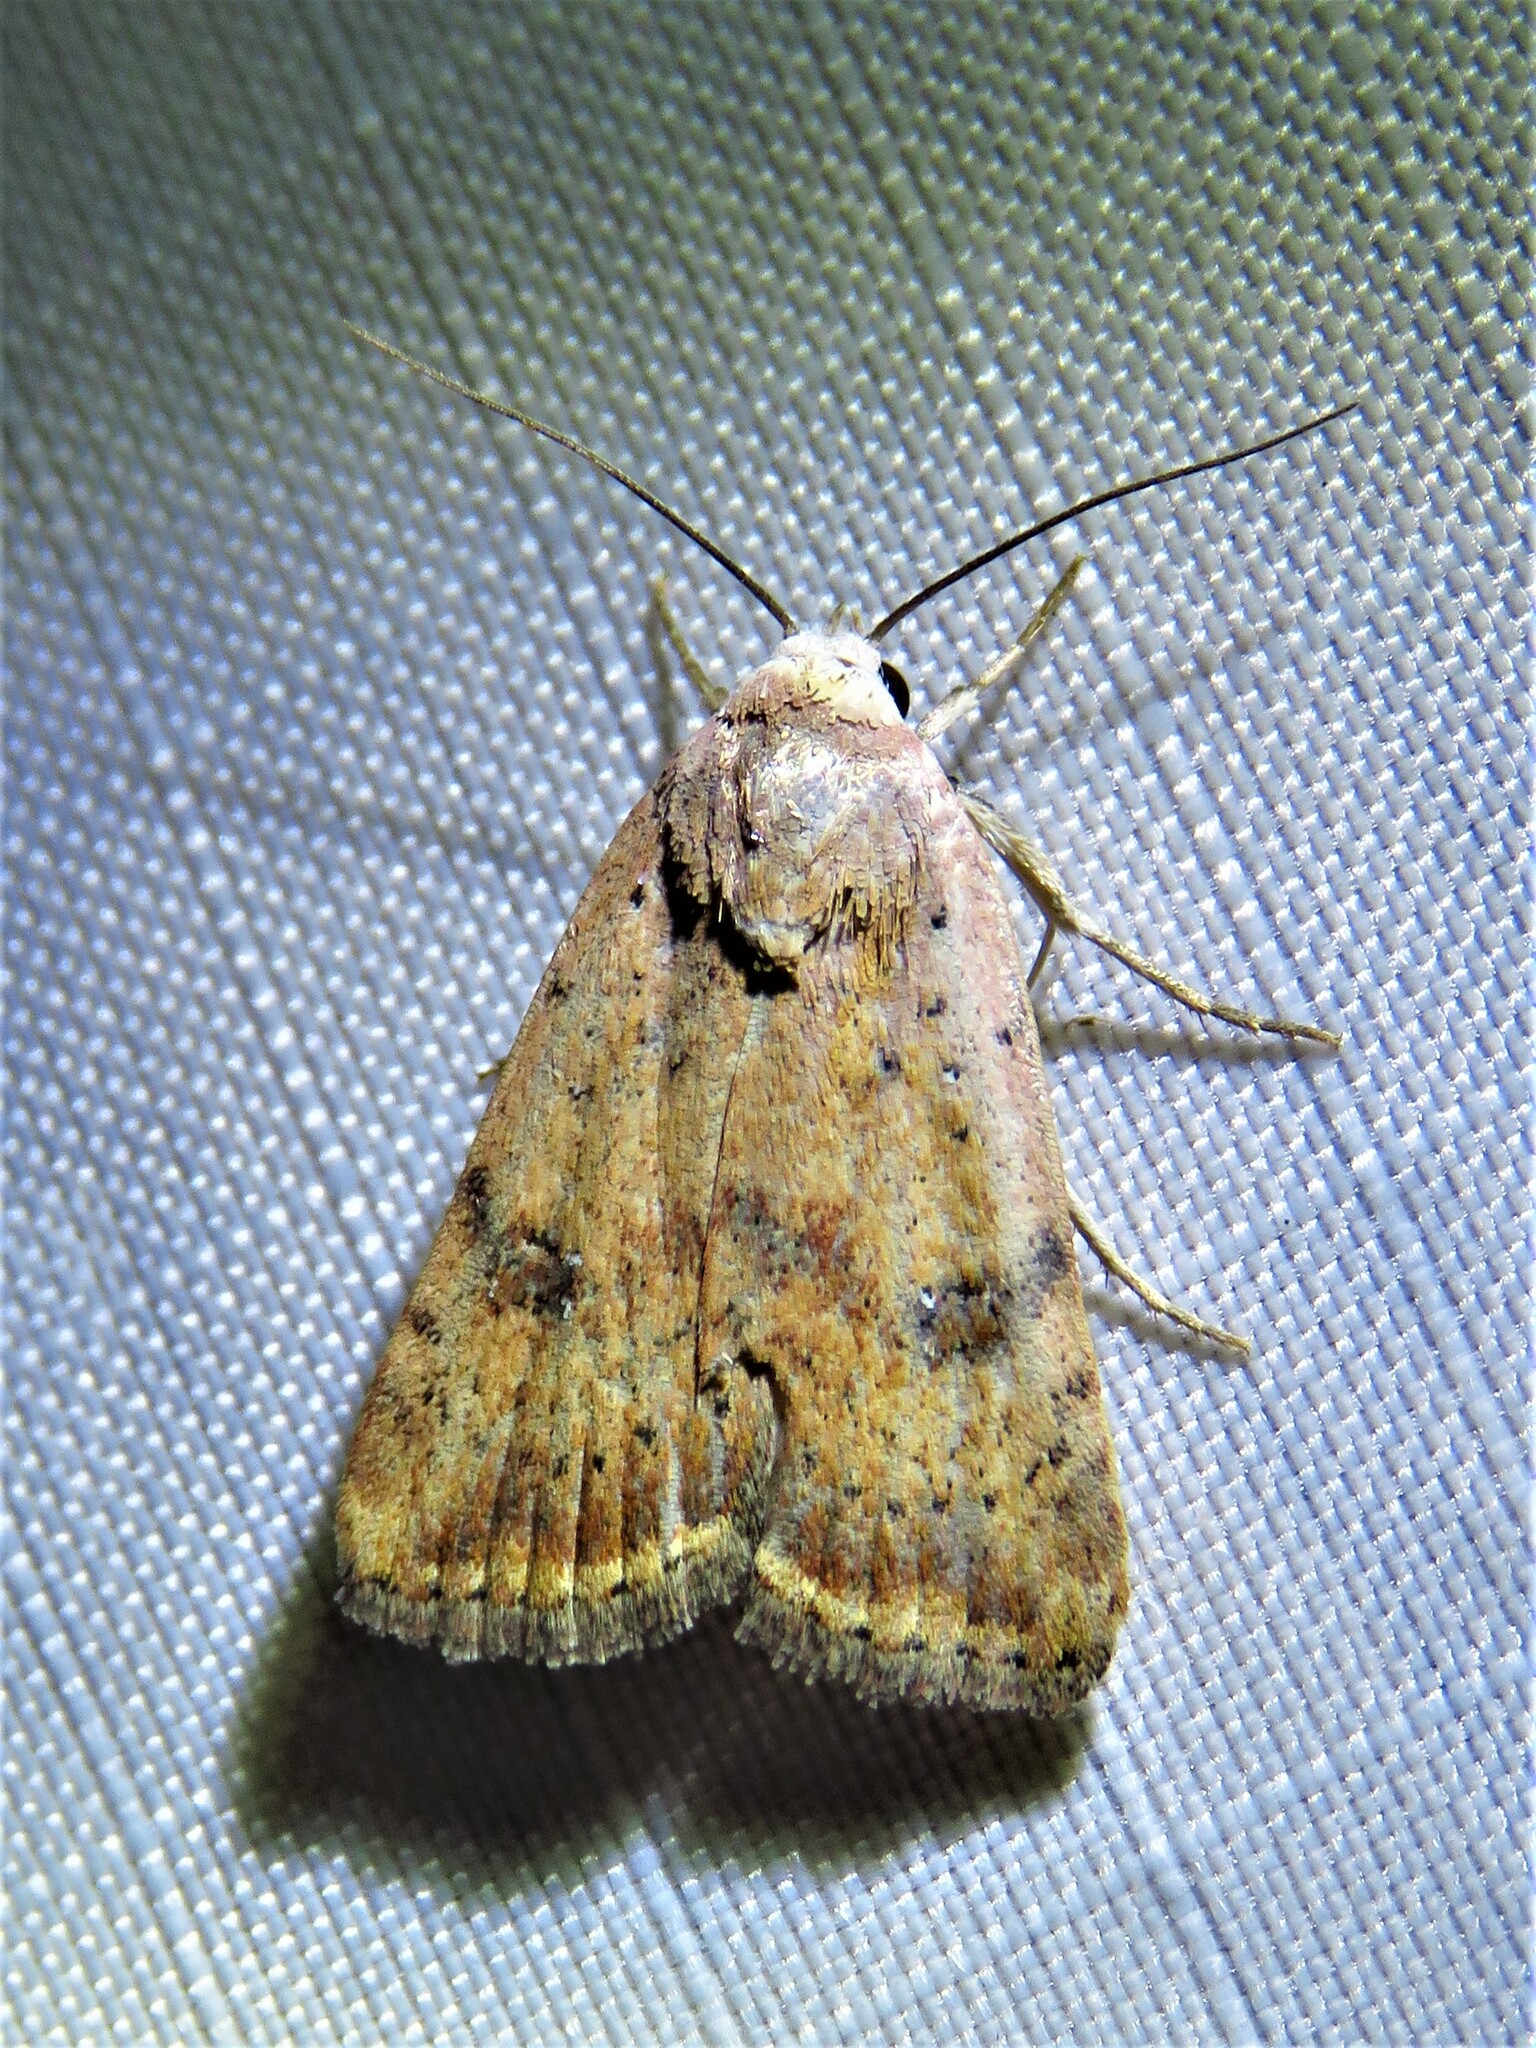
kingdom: Animalia
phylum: Arthropoda
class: Insecta
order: Lepidoptera
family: Noctuidae
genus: Micrathetis
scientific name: Micrathetis triplex
